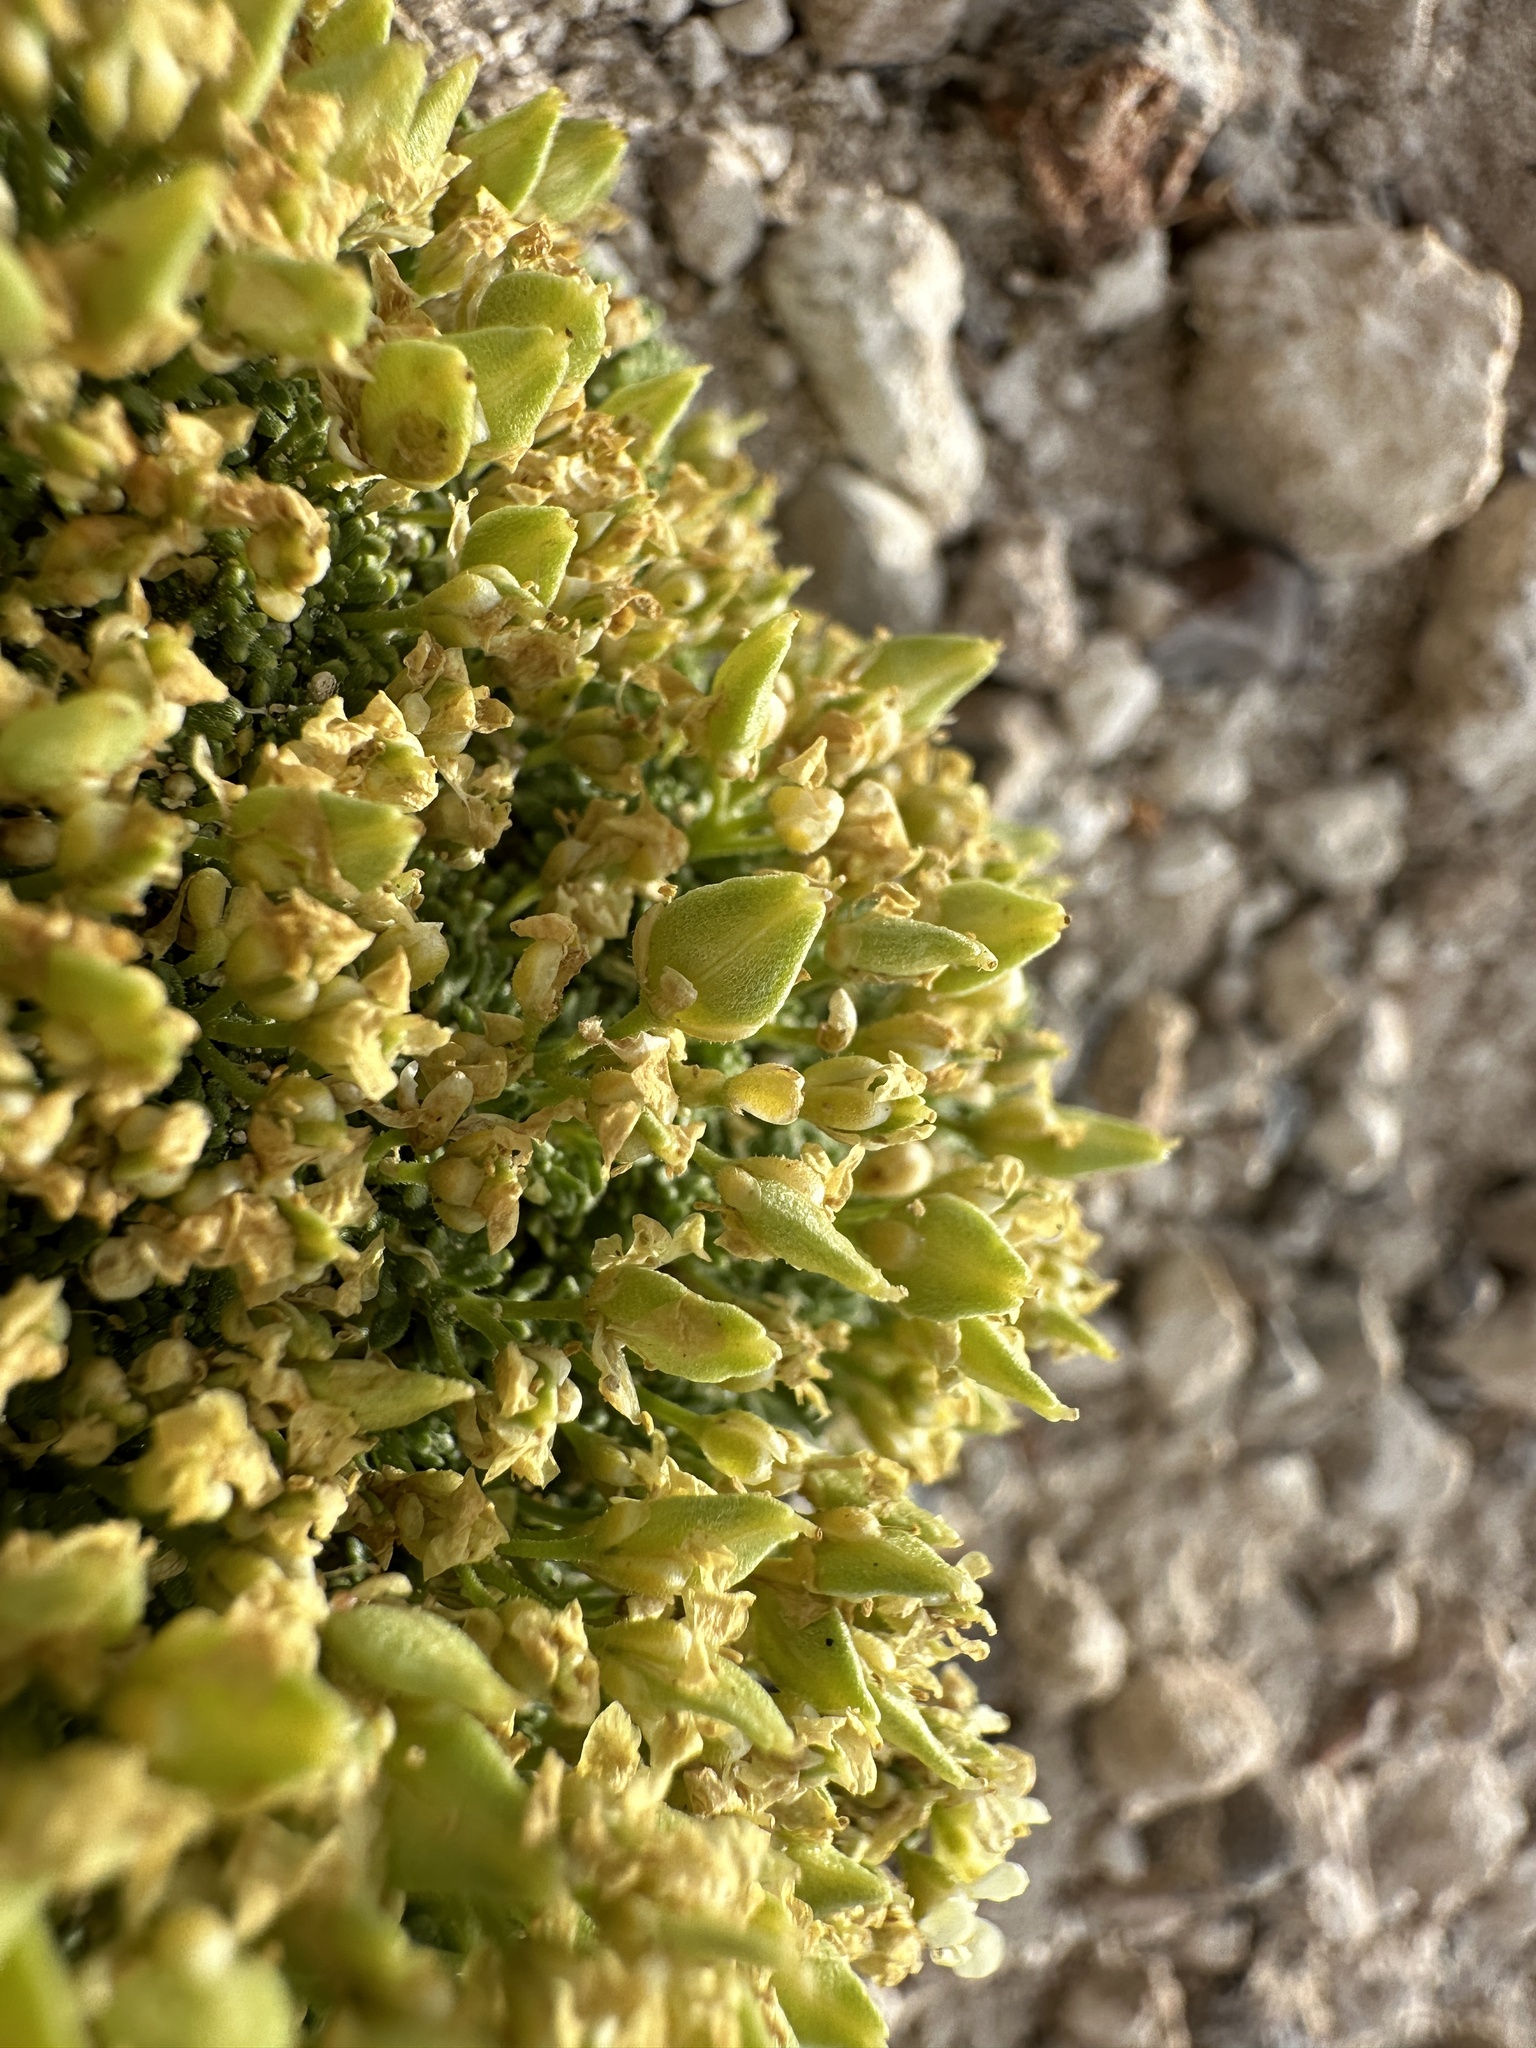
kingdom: Plantae
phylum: Tracheophyta
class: Magnoliopsida
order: Brassicales
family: Brassicaceae
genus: Lepidium
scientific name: Lepidium nanum
